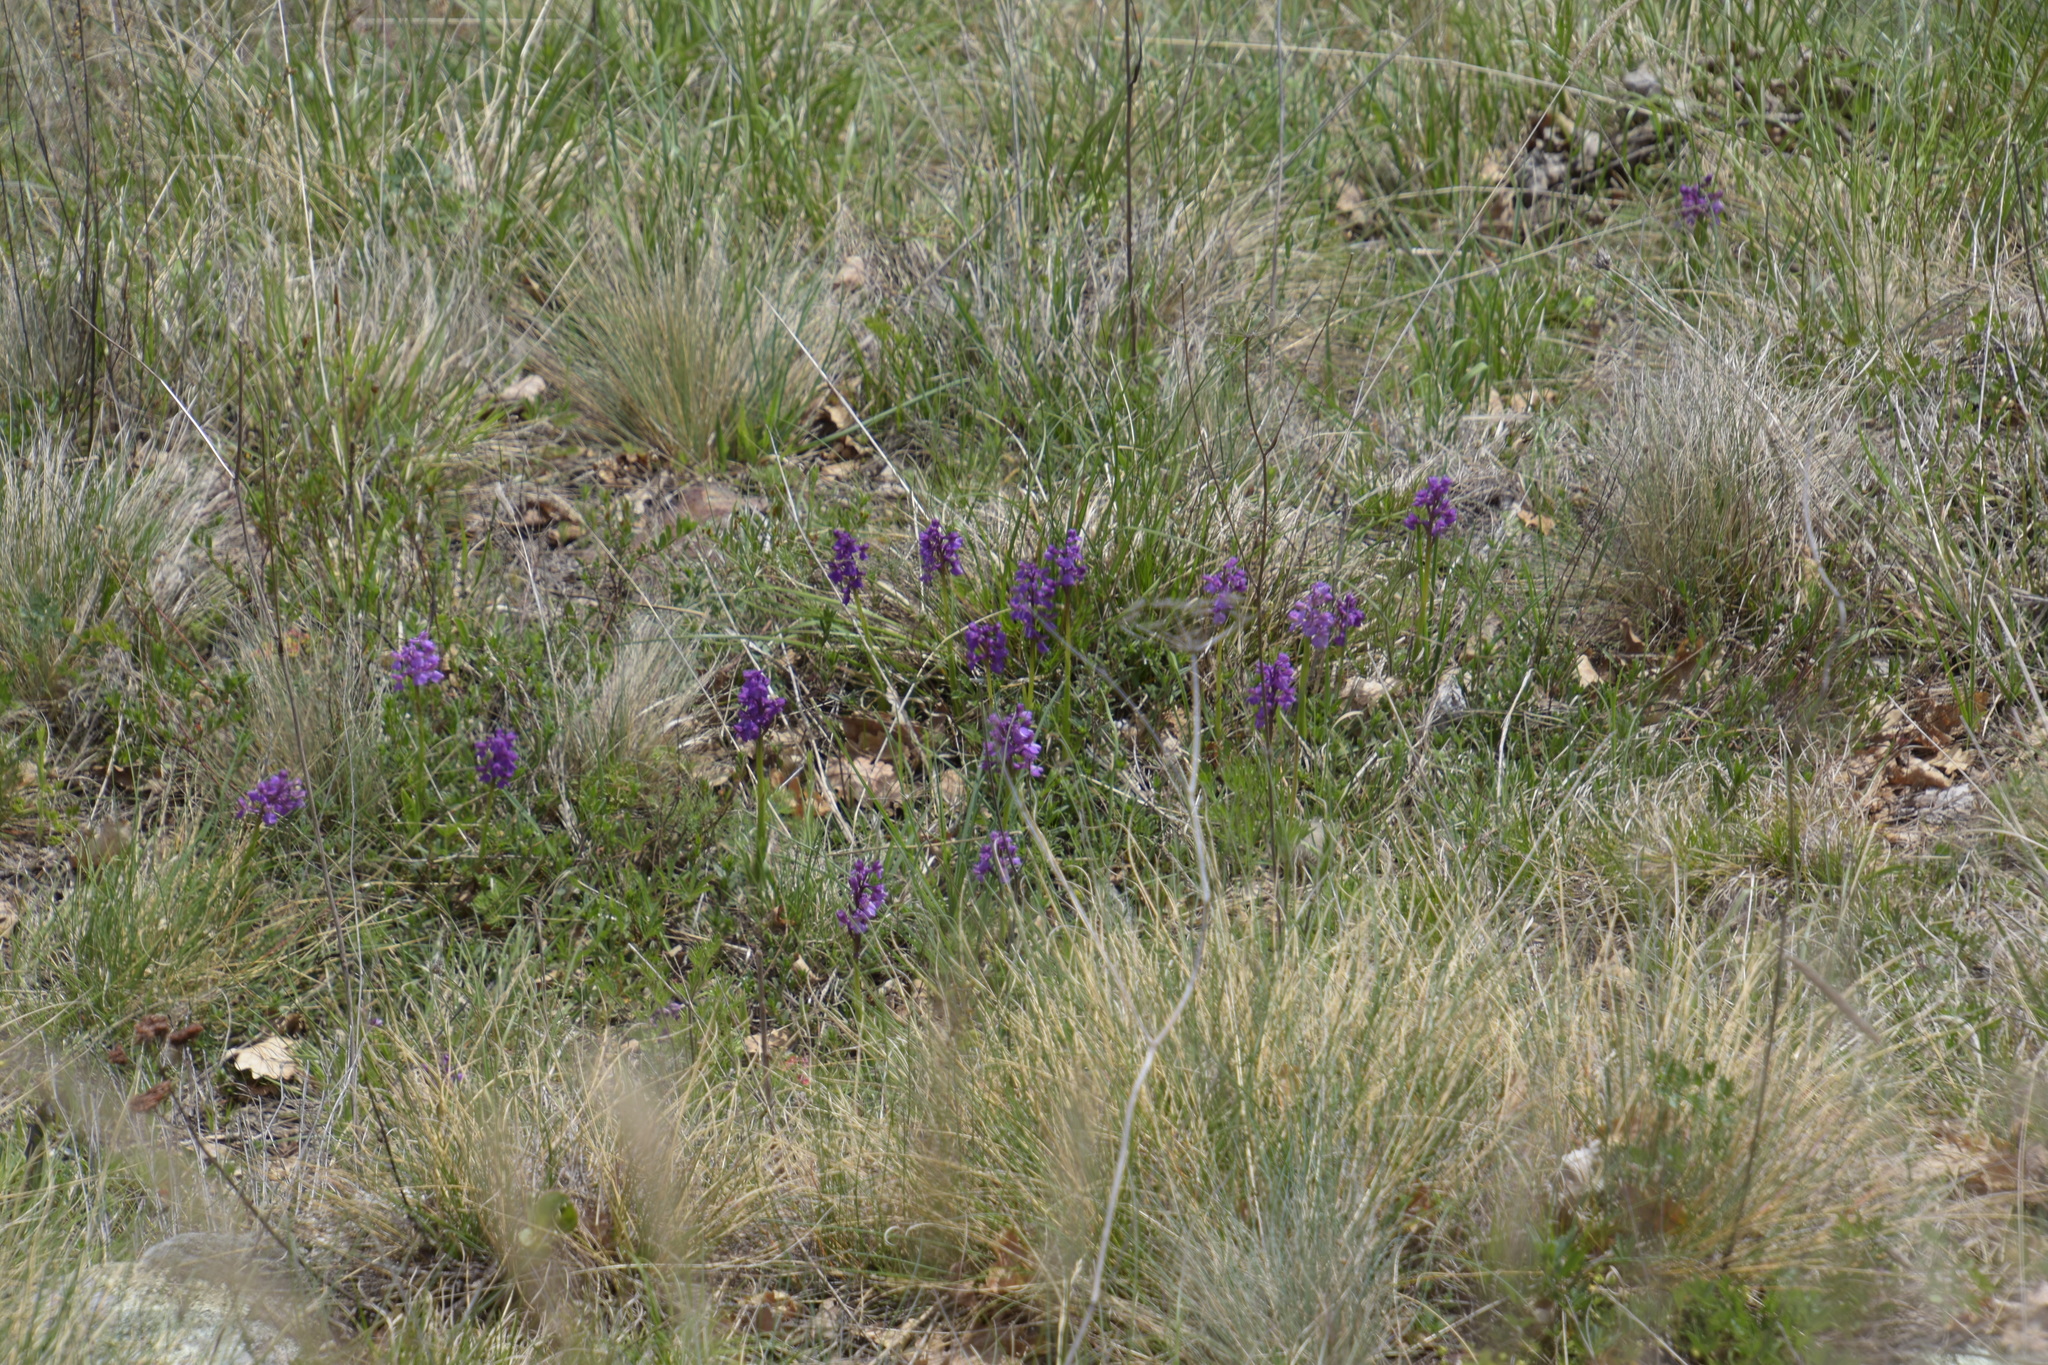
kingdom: Plantae
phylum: Tracheophyta
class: Liliopsida
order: Asparagales
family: Orchidaceae
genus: Anacamptis
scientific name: Anacamptis morio
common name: Green-winged orchid
